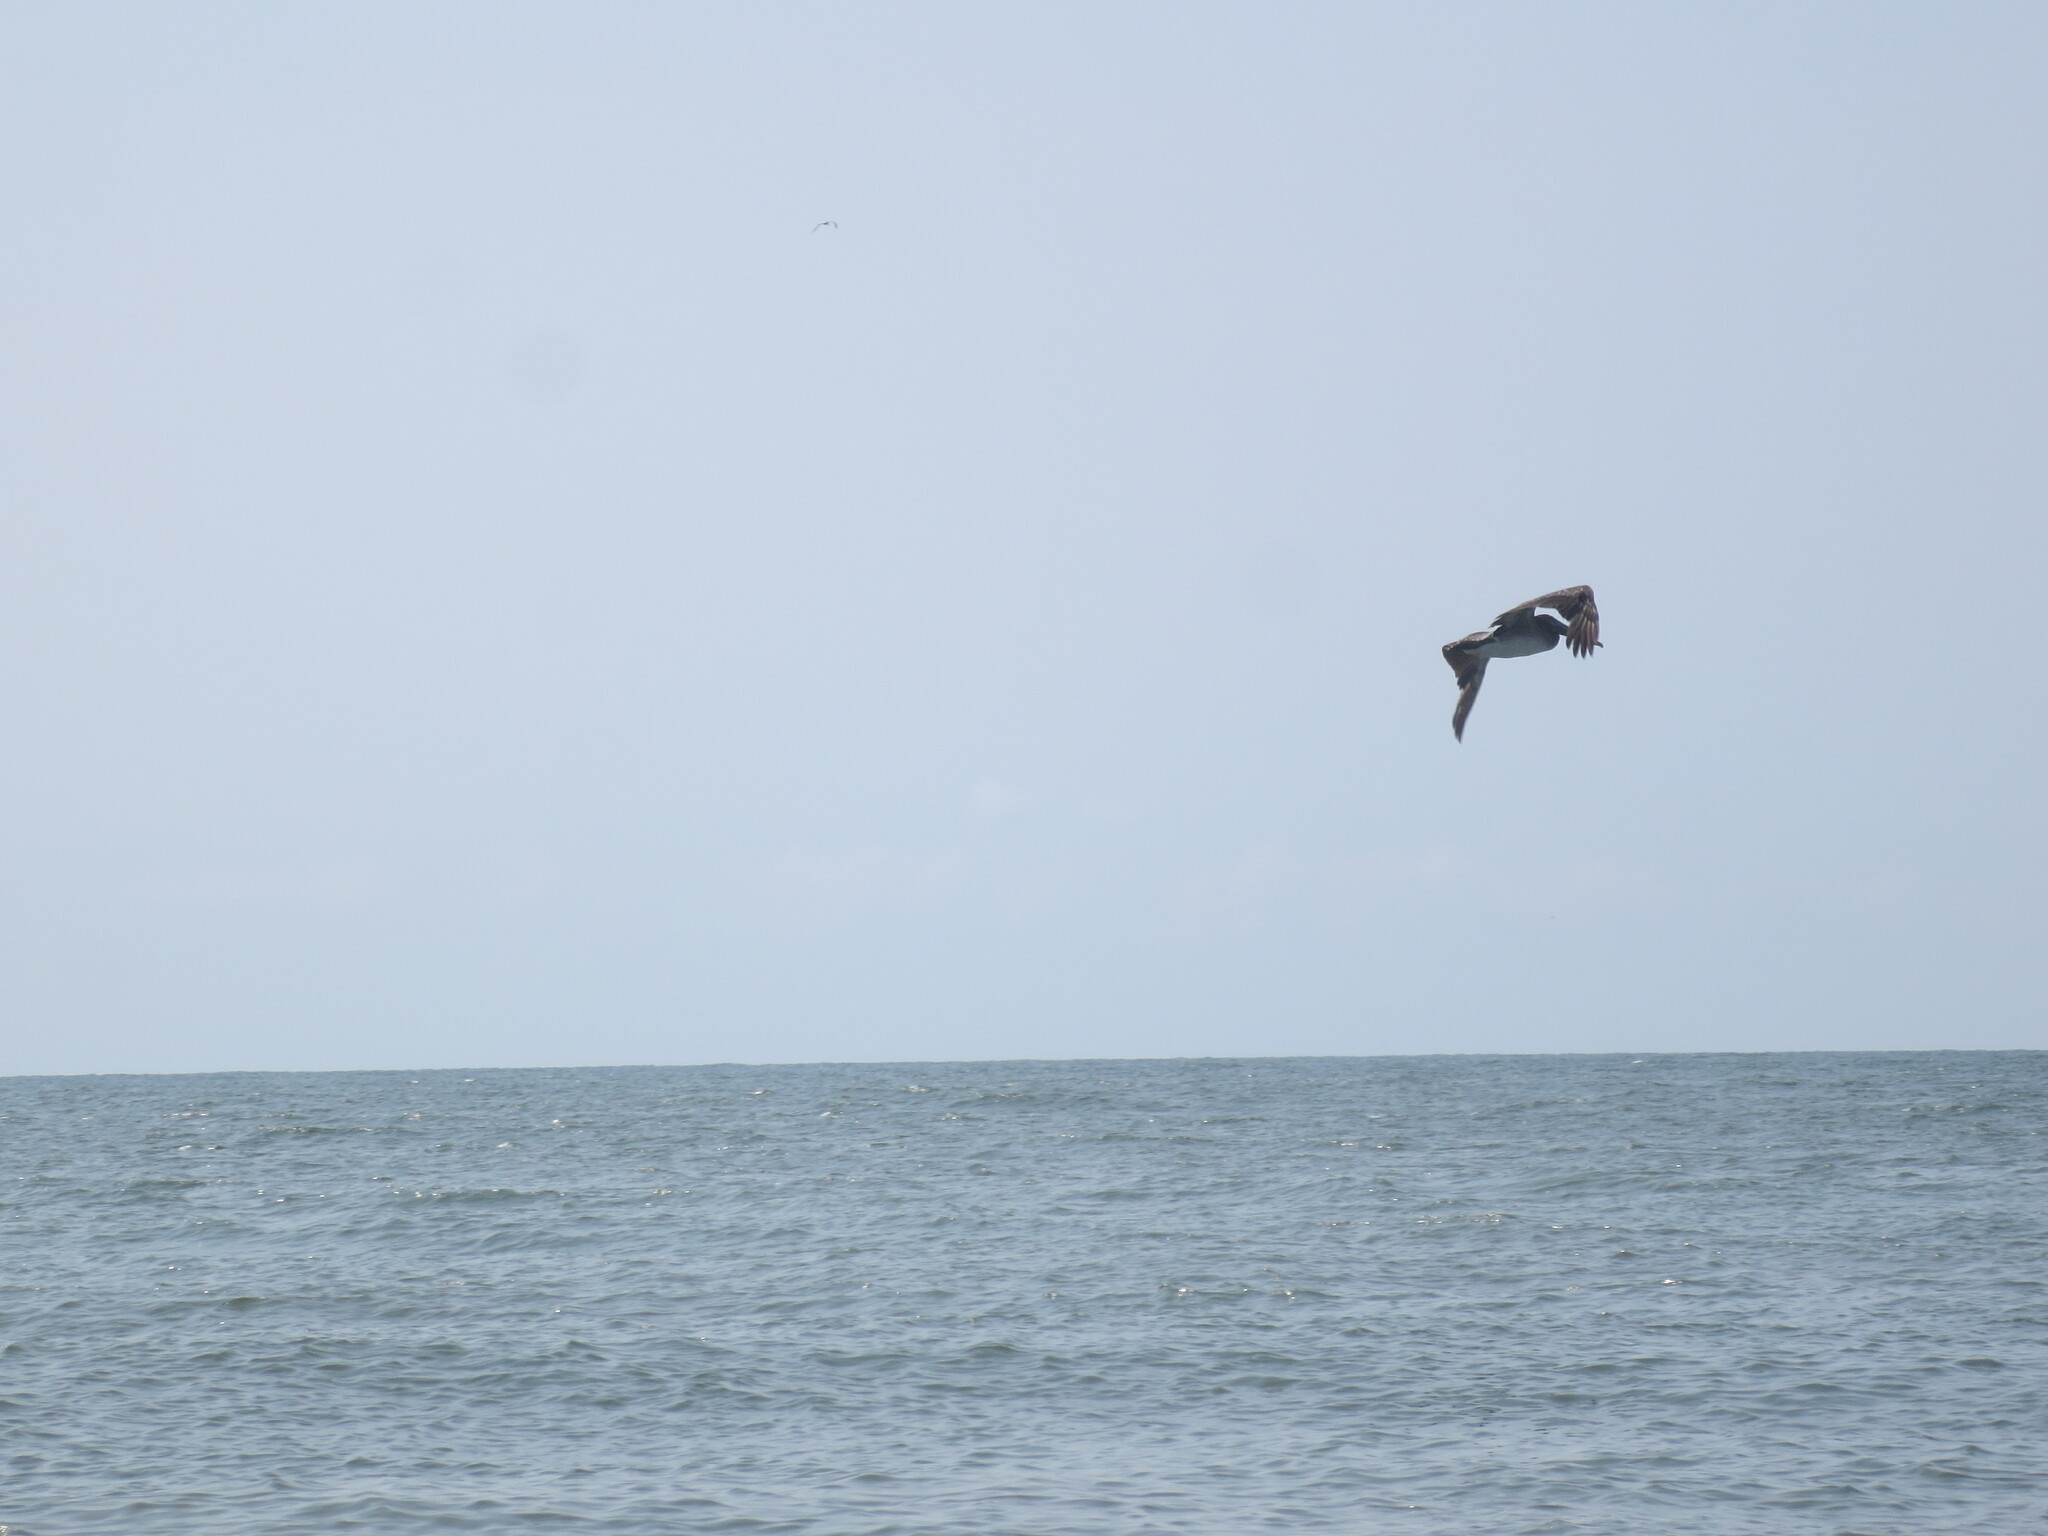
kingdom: Animalia
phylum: Chordata
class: Aves
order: Pelecaniformes
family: Pelecanidae
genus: Pelecanus
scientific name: Pelecanus occidentalis
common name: Brown pelican
